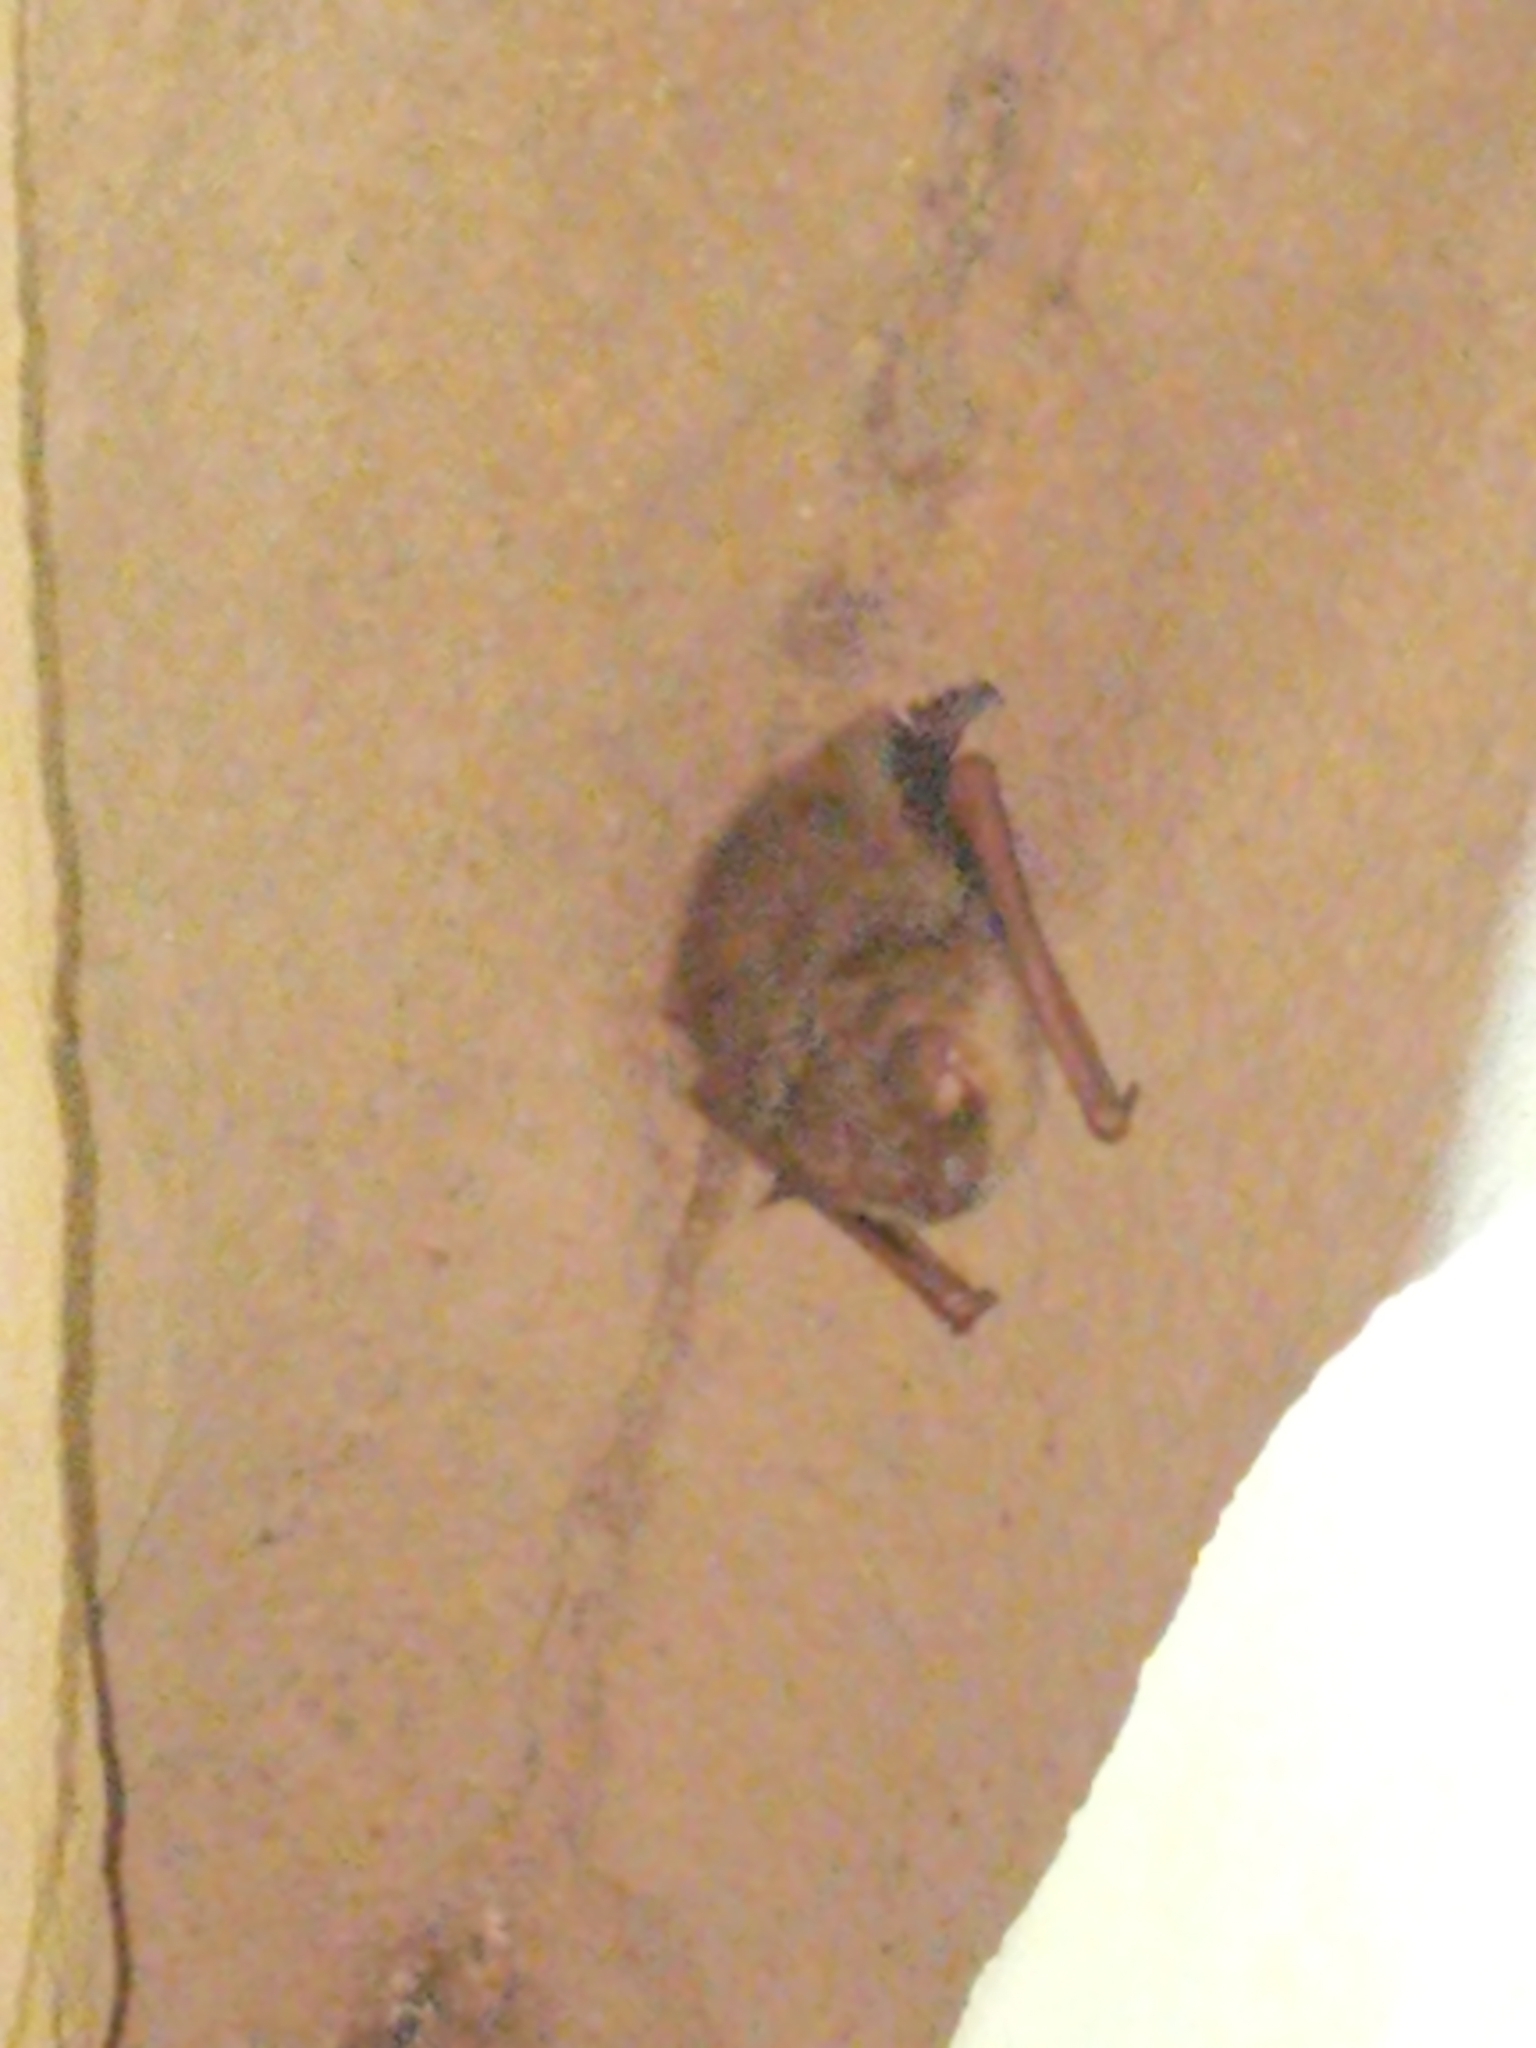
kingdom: Animalia
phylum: Chordata
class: Mammalia
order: Chiroptera
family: Vespertilionidae
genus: Perimyotis
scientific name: Perimyotis subflavus
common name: Eastern pipistrelle
